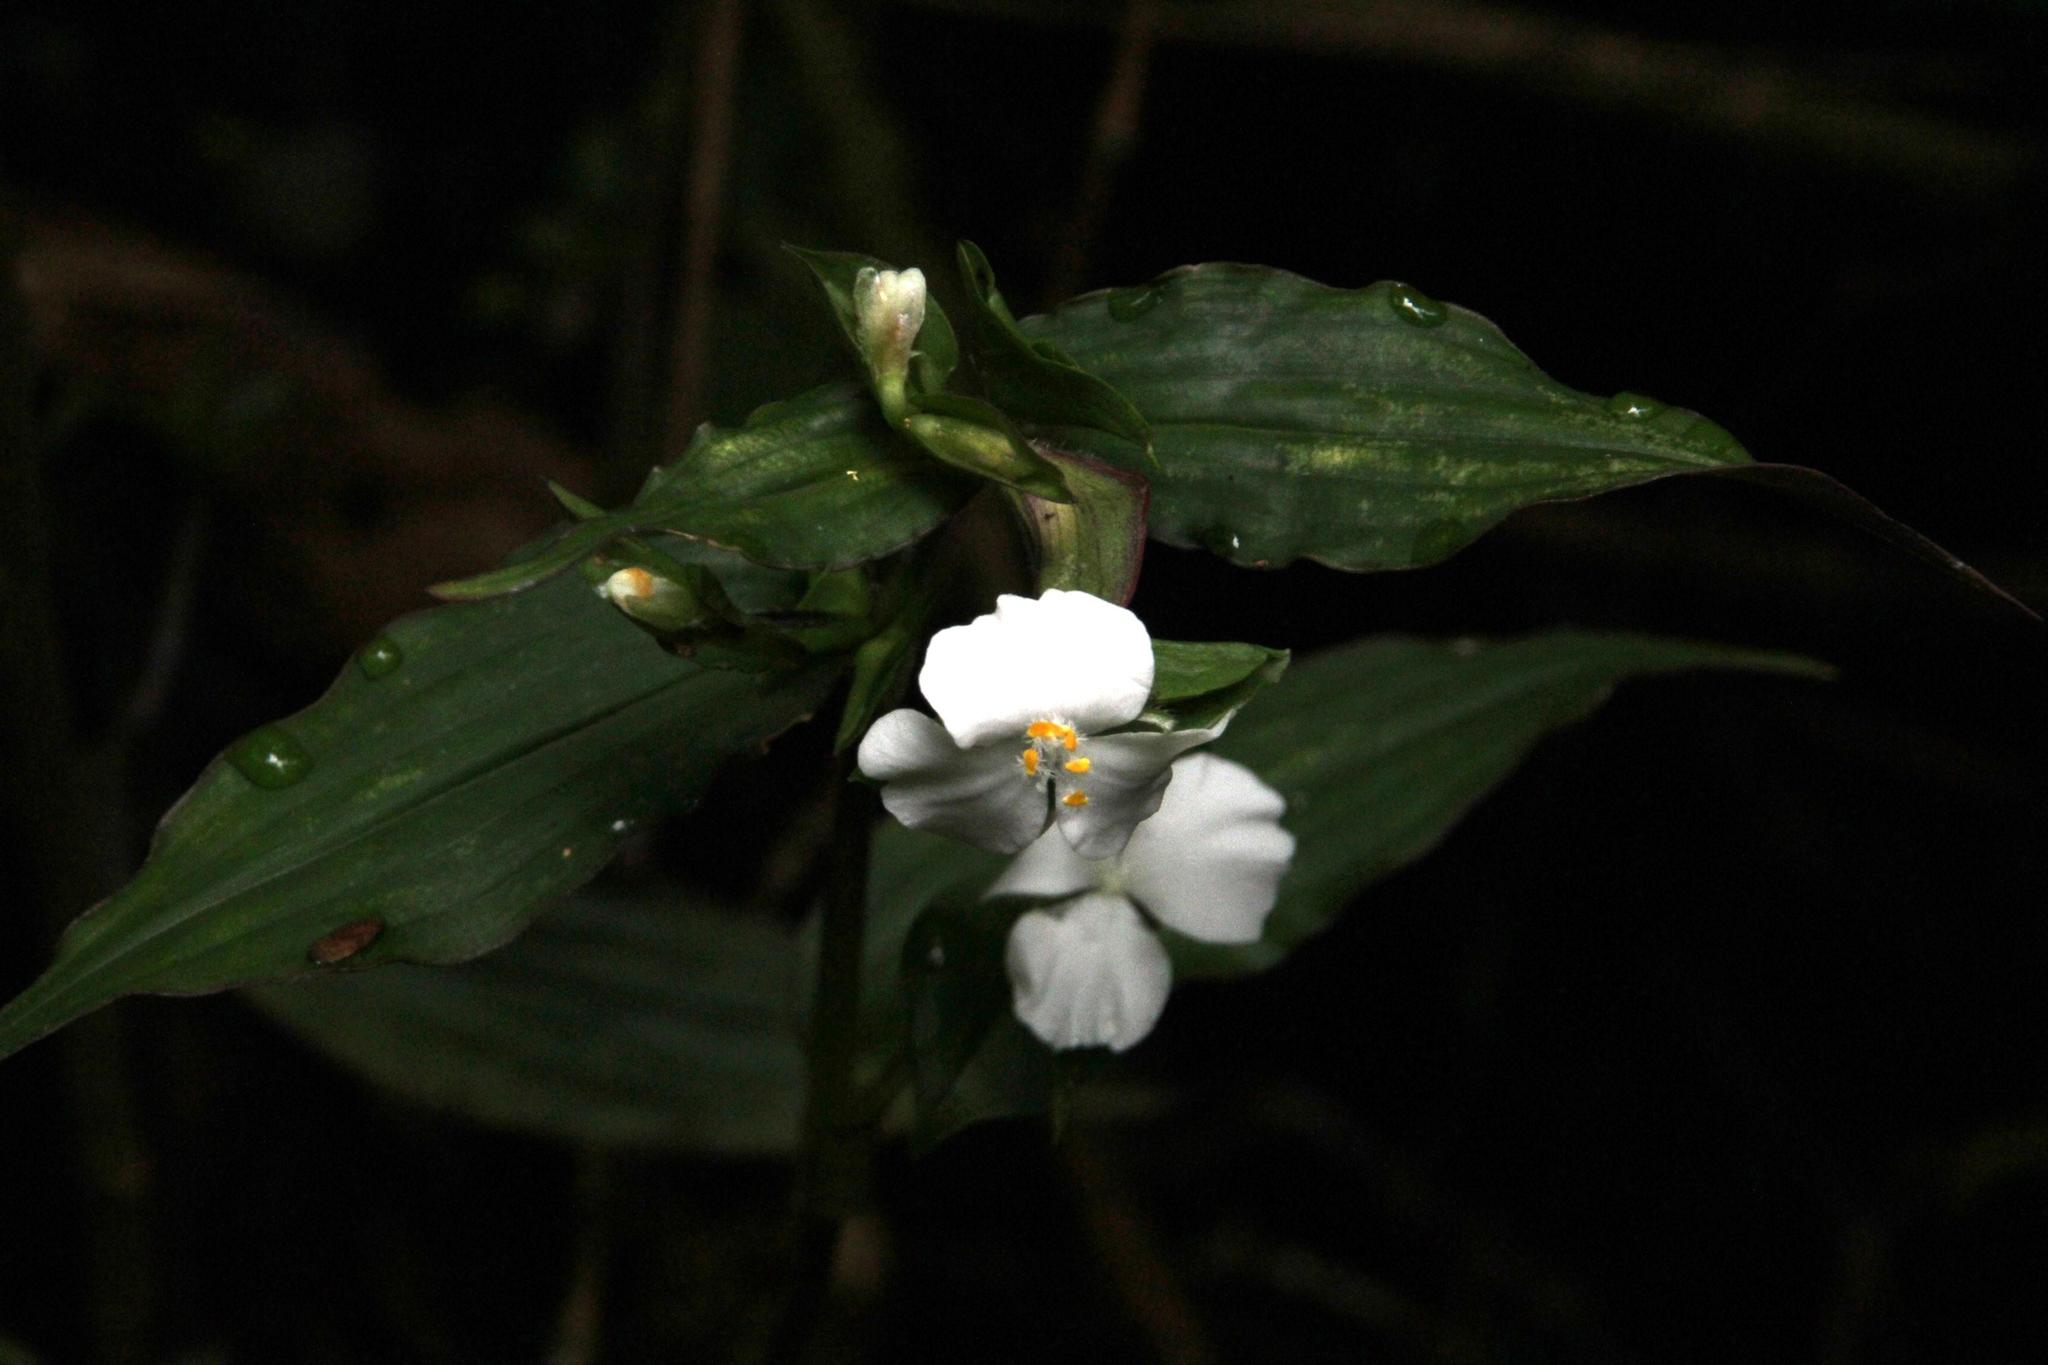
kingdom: Plantae
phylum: Tracheophyta
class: Liliopsida
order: Commelinales
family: Commelinaceae
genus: Tradescantia
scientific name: Tradescantia praetermissa
